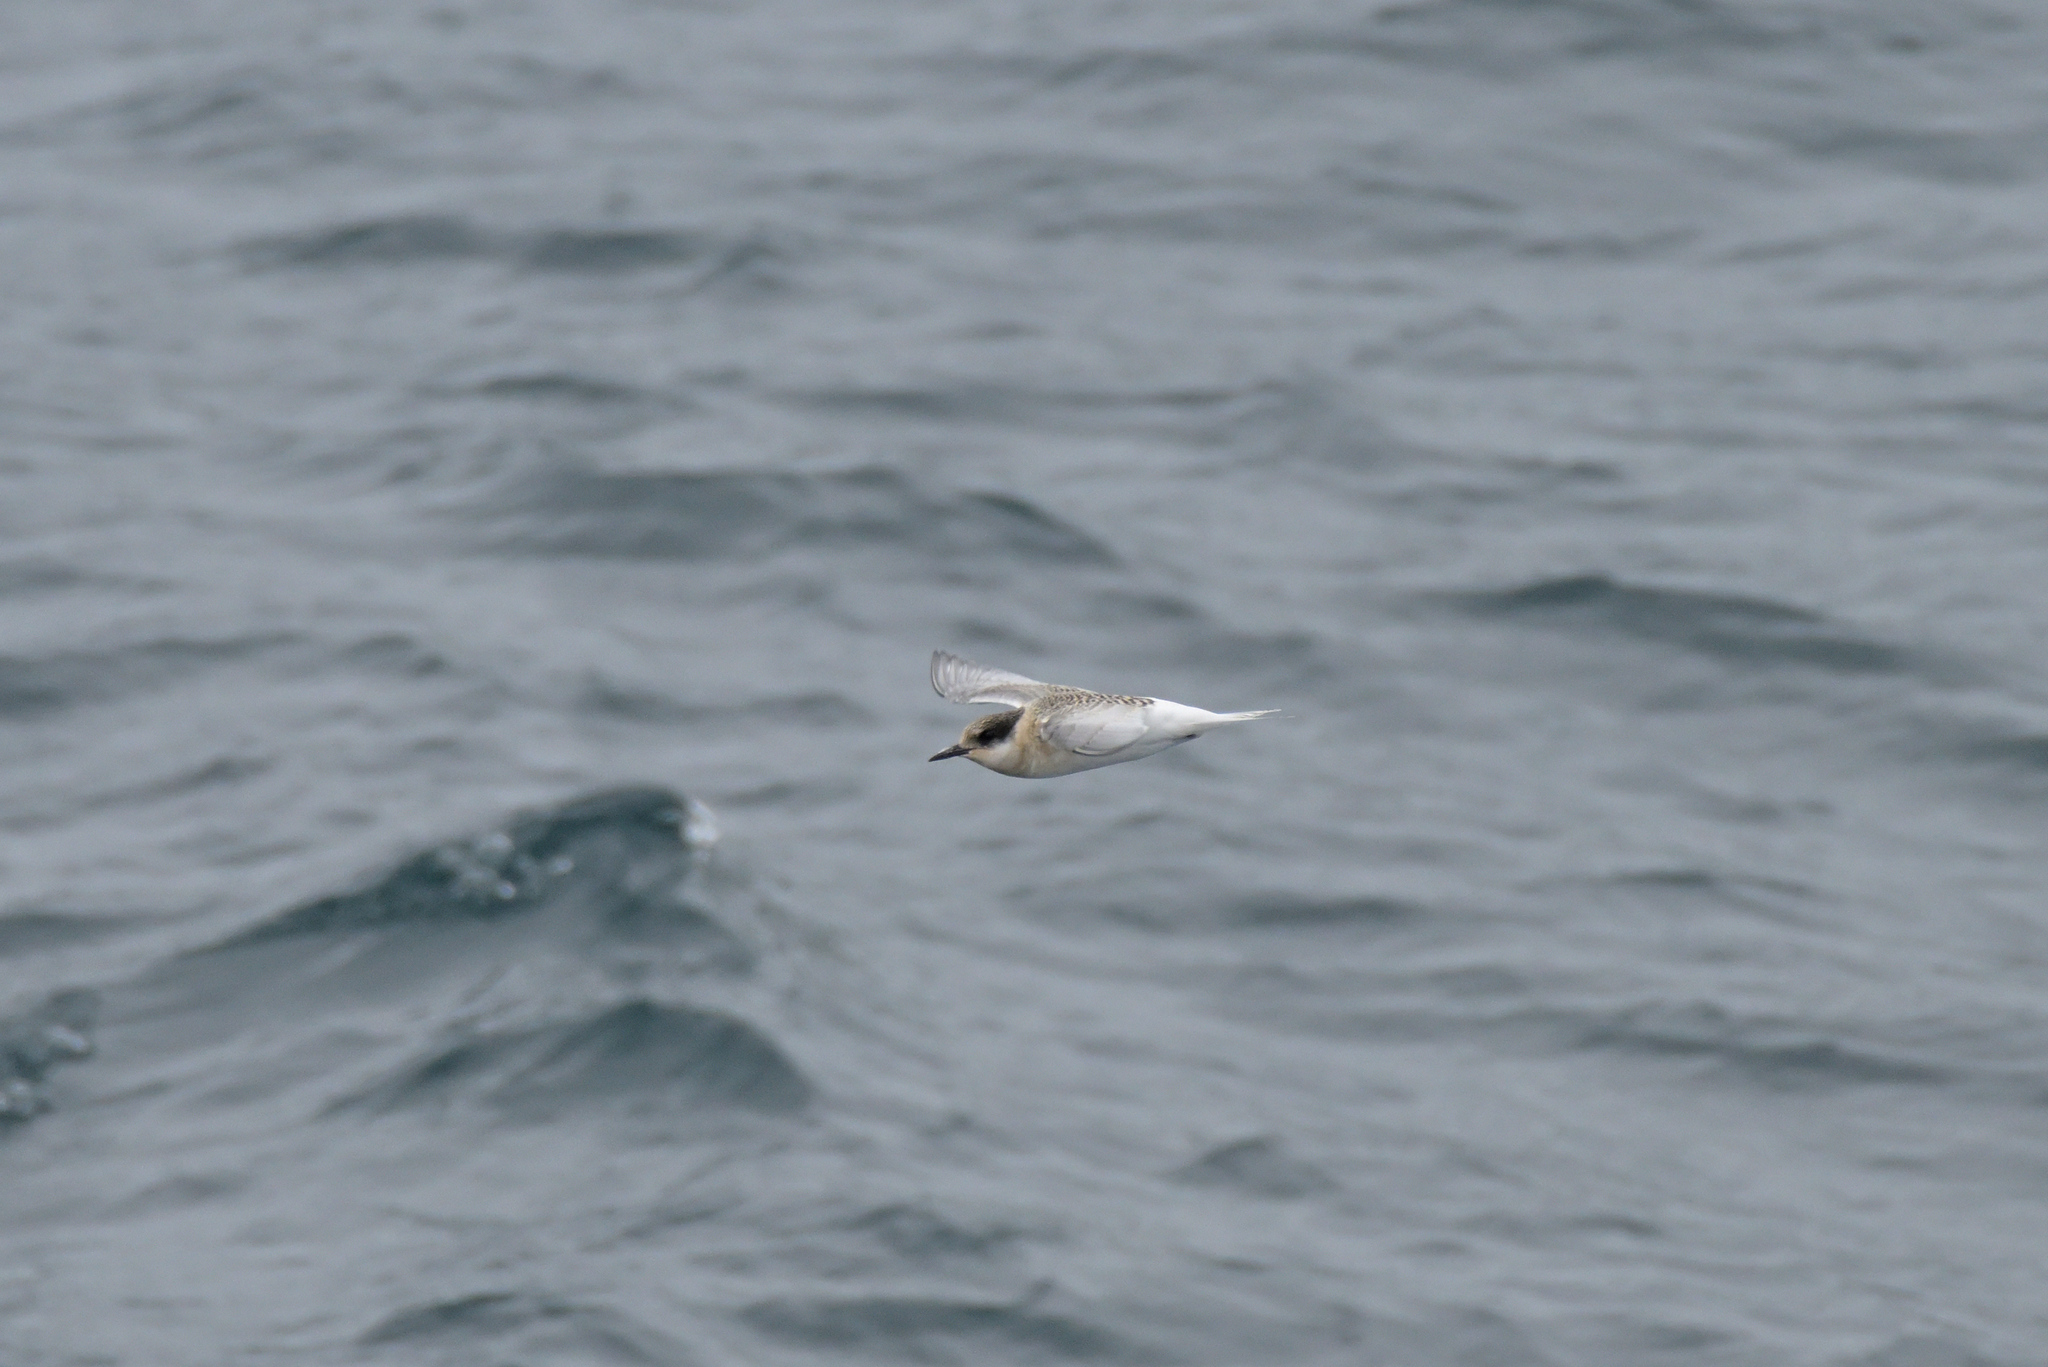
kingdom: Animalia
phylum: Chordata
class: Aves
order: Charadriiformes
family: Laridae
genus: Sterna
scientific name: Sterna vittata
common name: Antarctic tern
